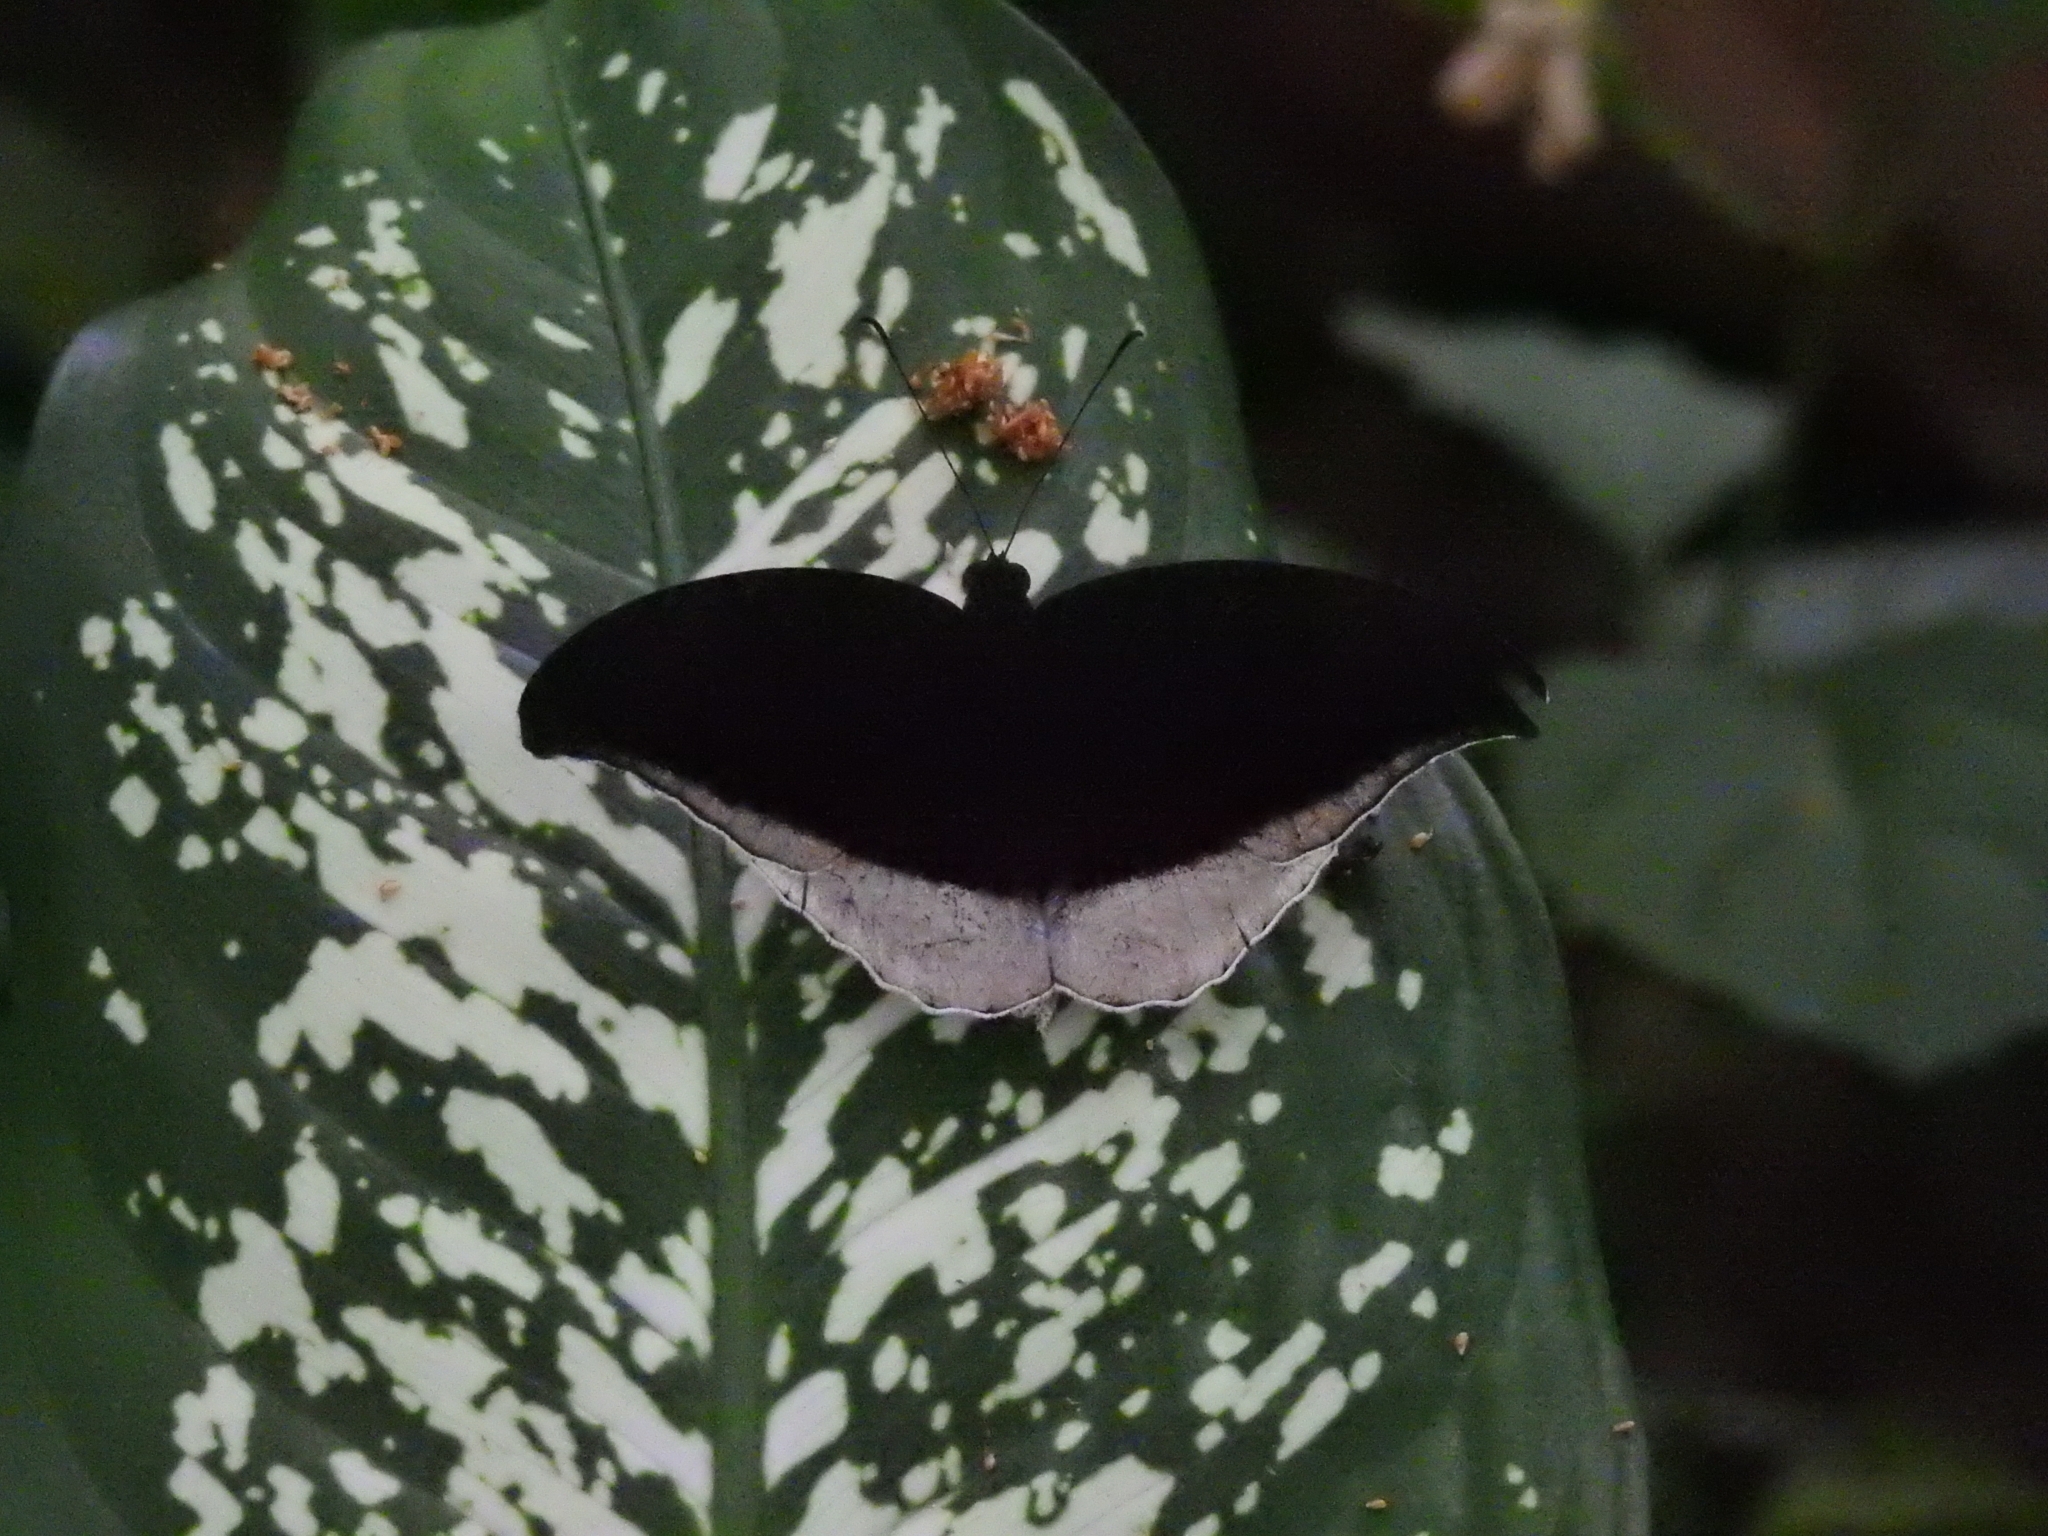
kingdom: Animalia
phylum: Arthropoda
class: Insecta
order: Lepidoptera
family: Nymphalidae
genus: Tanaecia
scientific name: Tanaecia lepidea
